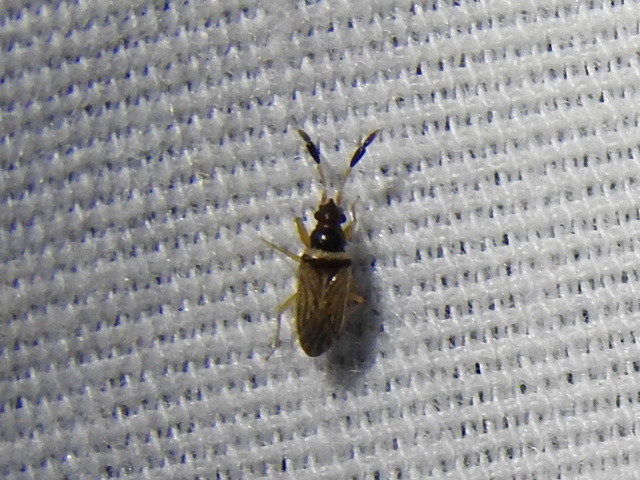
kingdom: Animalia
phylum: Arthropoda
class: Insecta
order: Hemiptera
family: Rhyparochromidae
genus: Ptochiomera
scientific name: Ptochiomera nodosa
